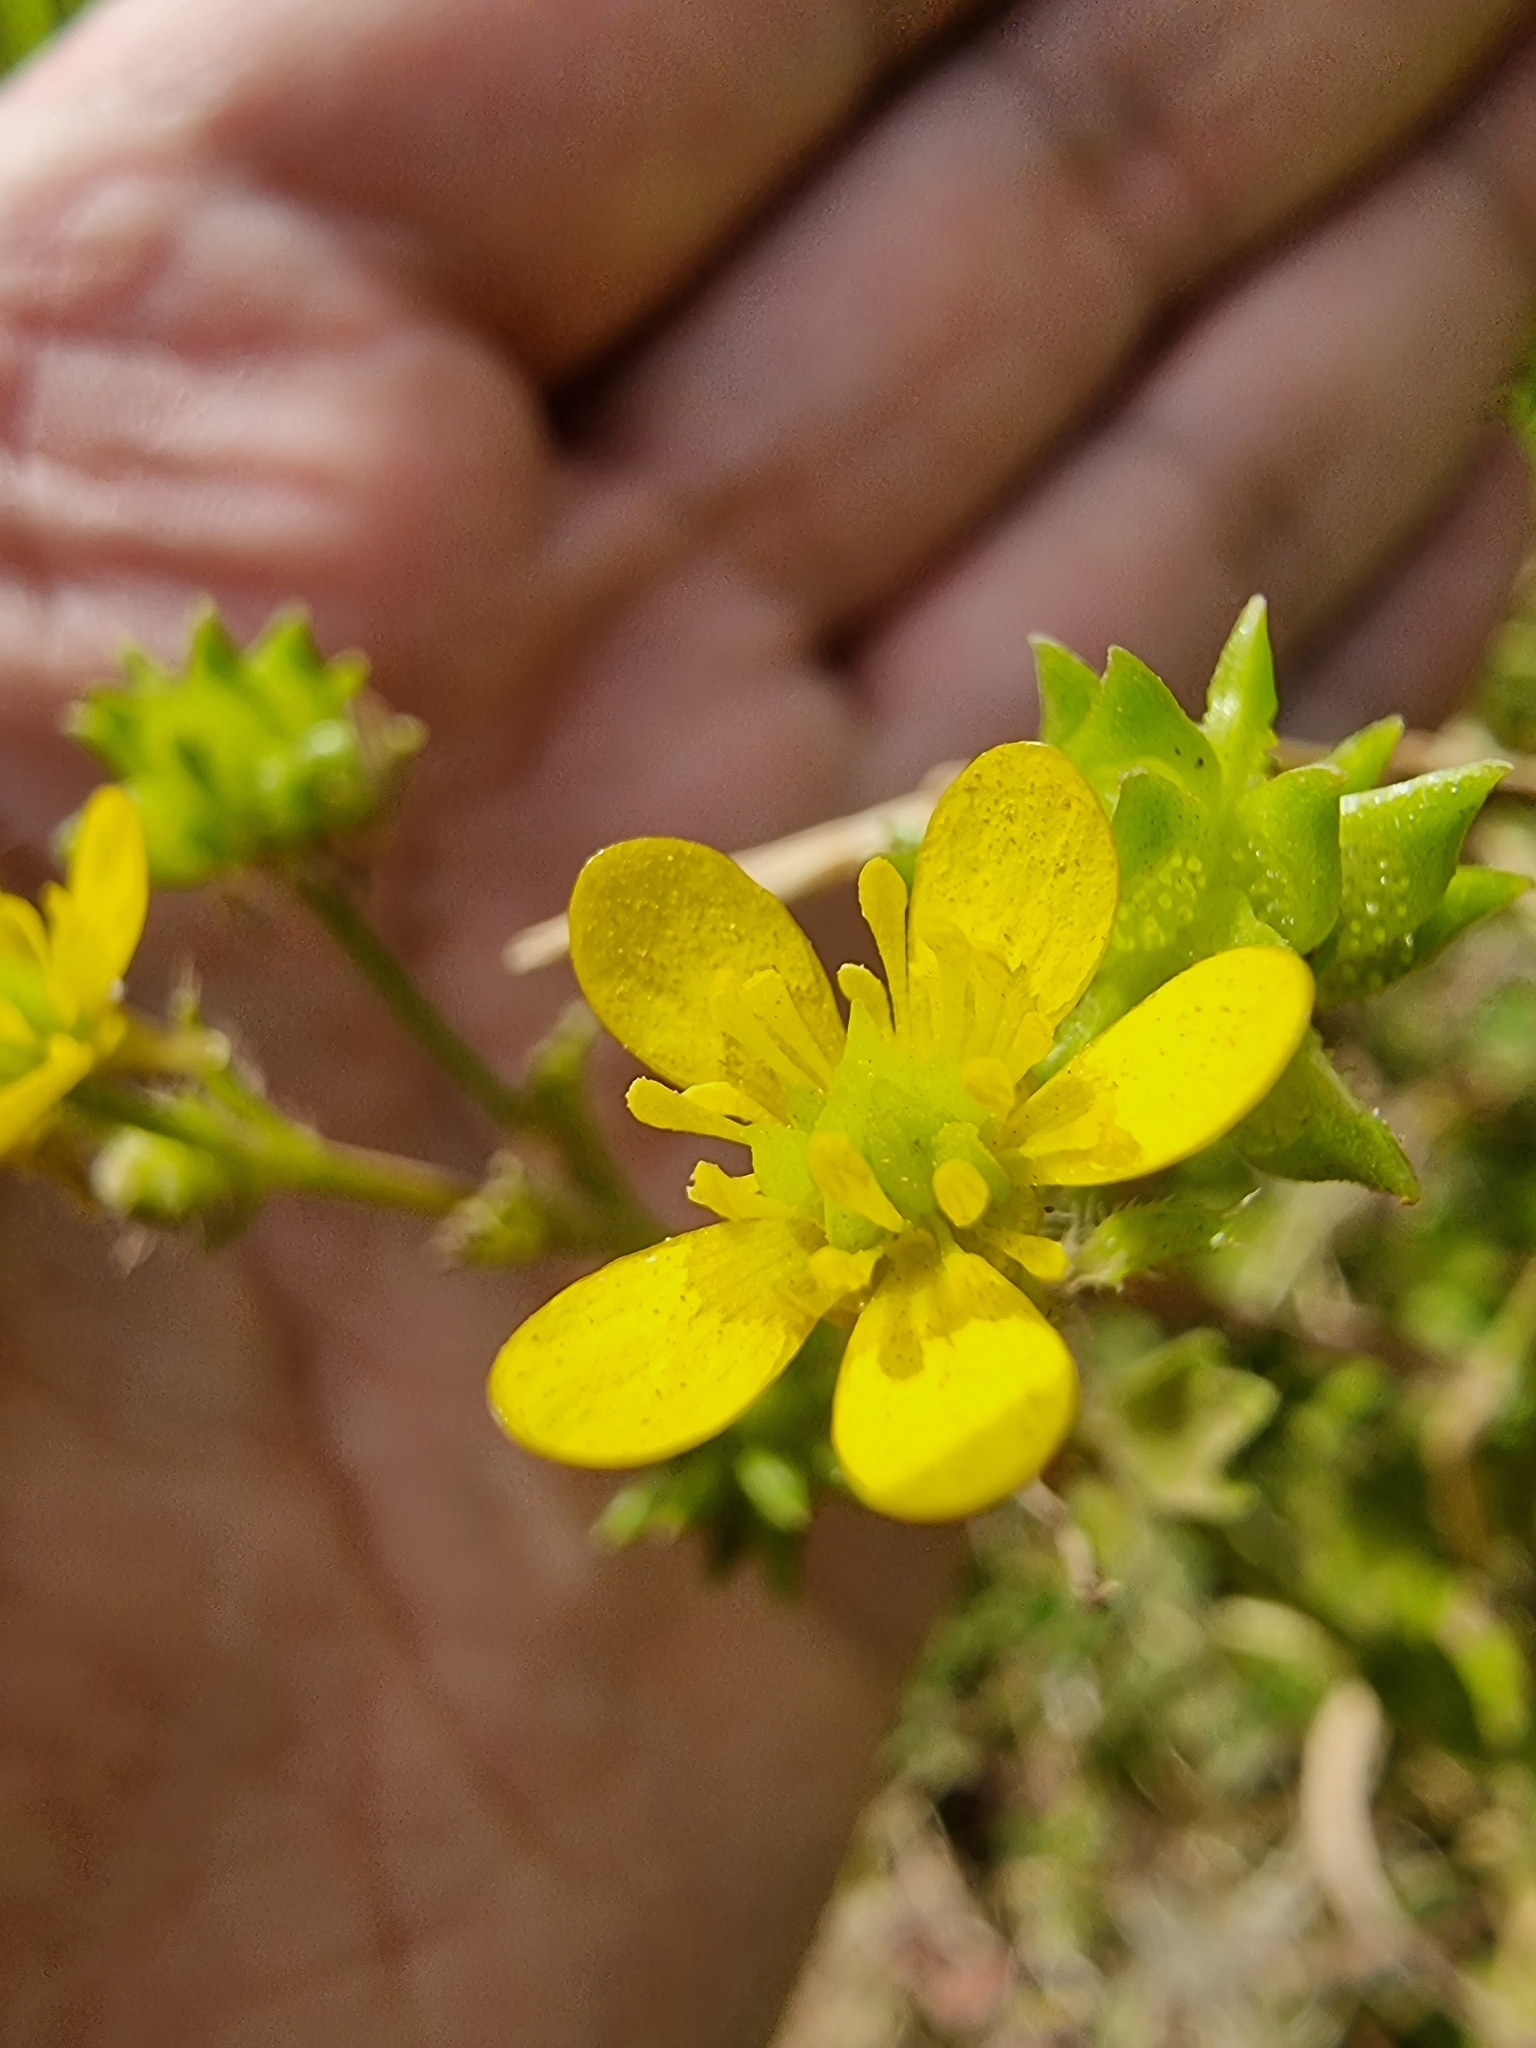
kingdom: Plantae
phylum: Tracheophyta
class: Magnoliopsida
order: Ranunculales
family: Ranunculaceae
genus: Ranunculus
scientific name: Ranunculus muricatus
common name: Rough-fruited buttercup
